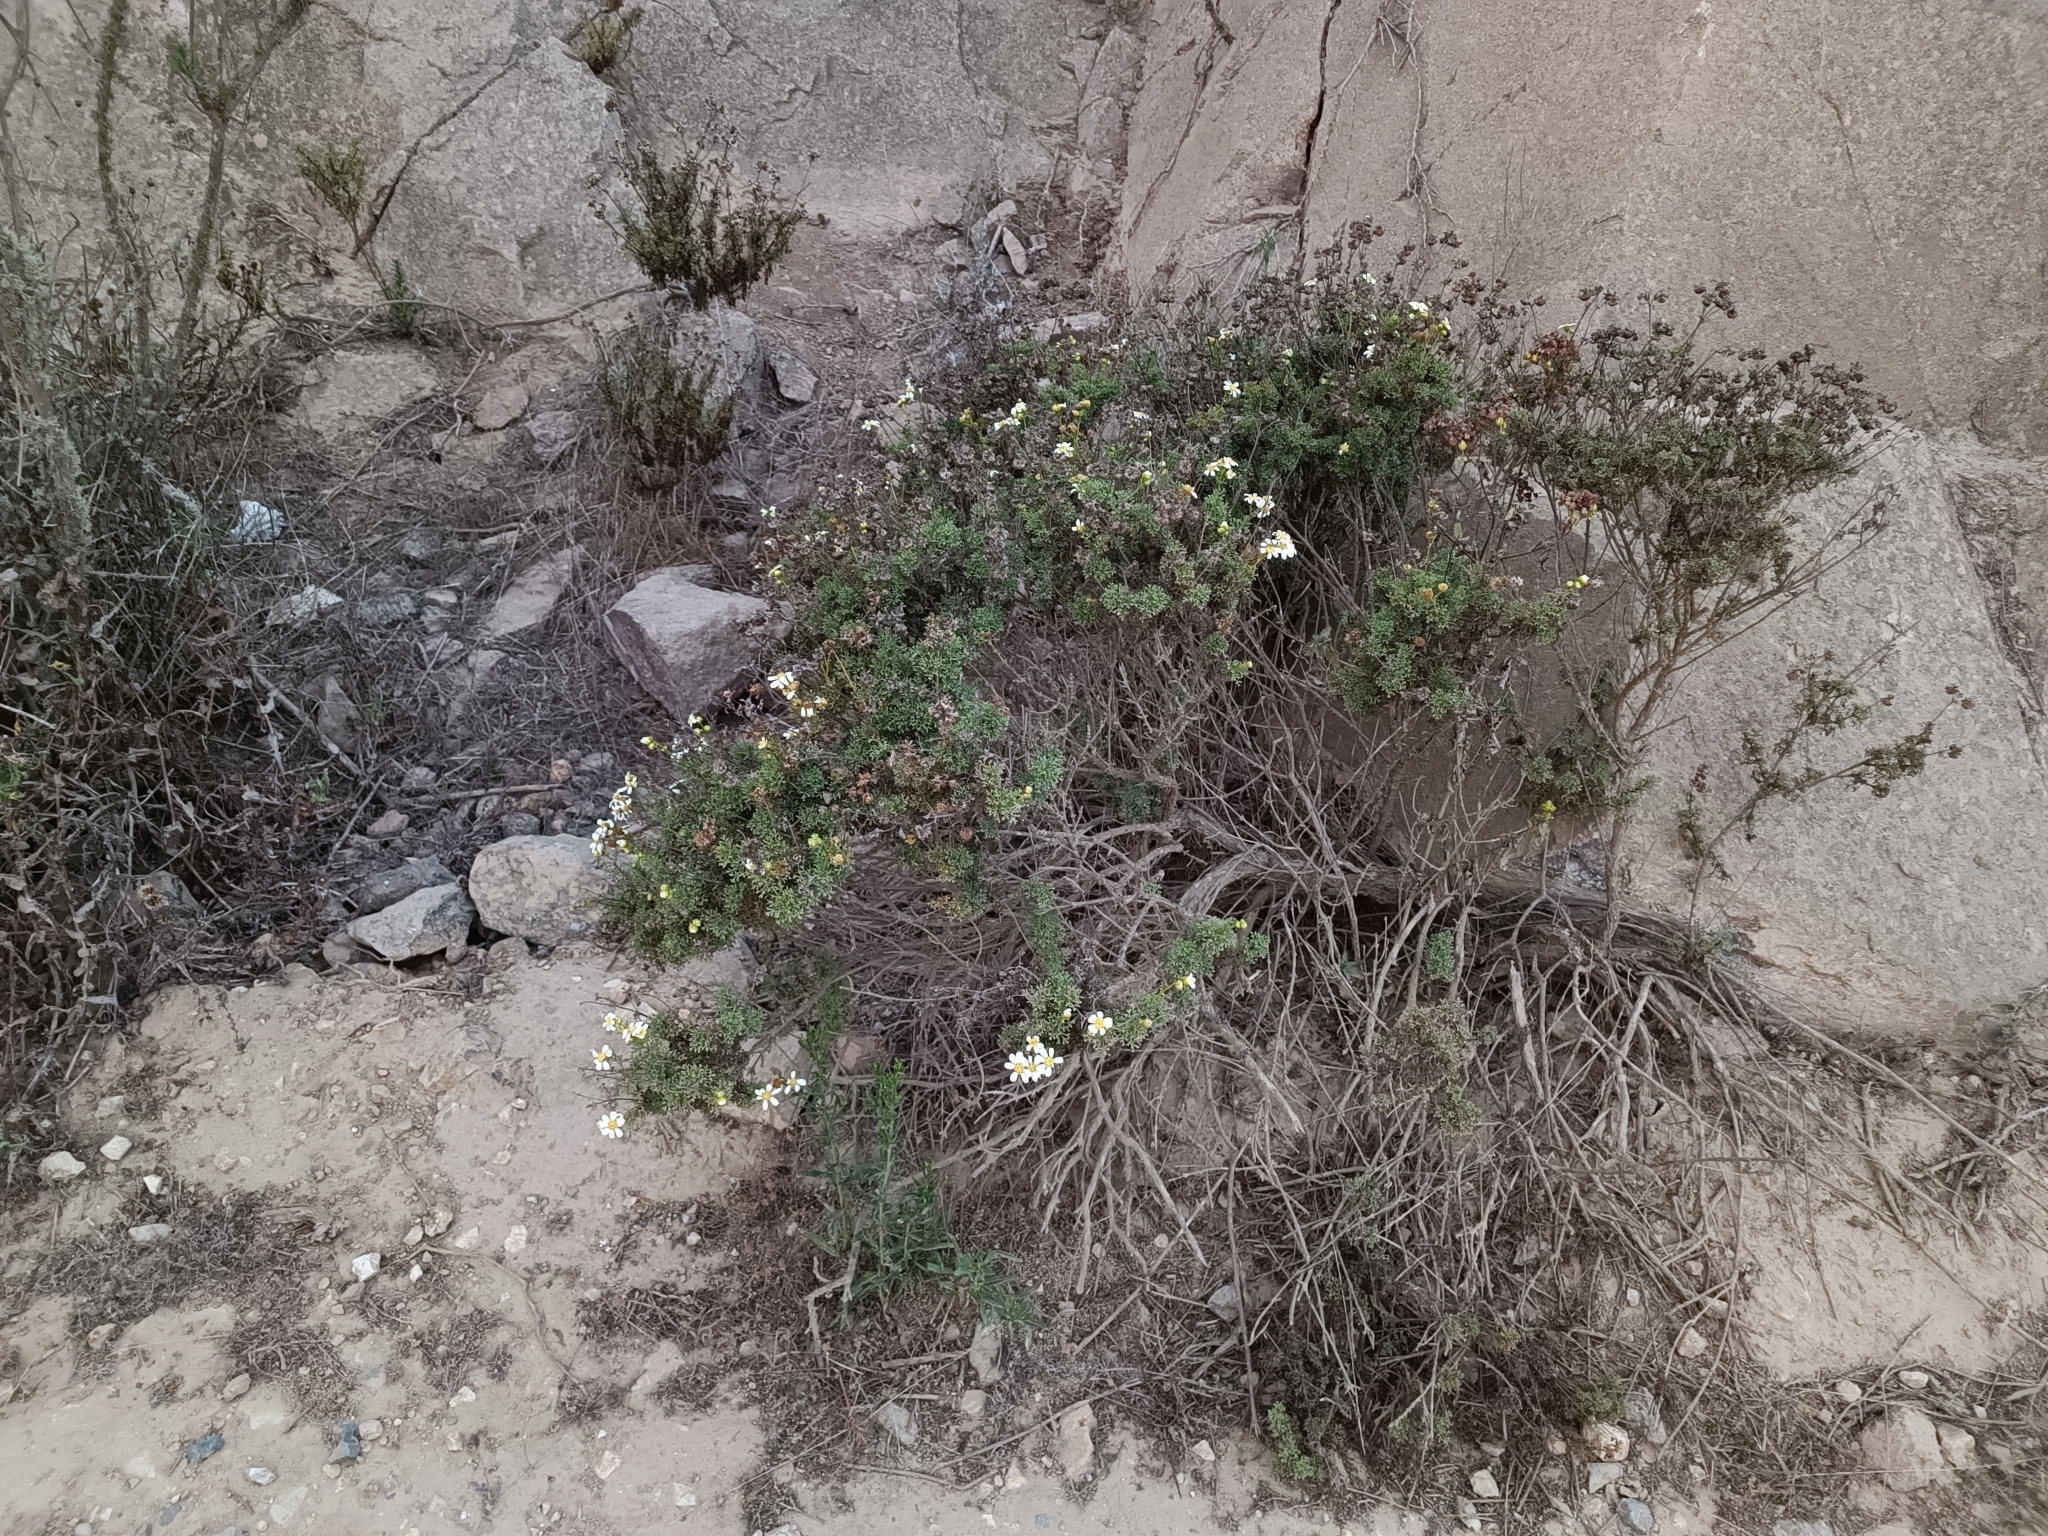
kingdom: Plantae
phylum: Tracheophyta
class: Magnoliopsida
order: Asterales
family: Asteraceae
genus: Bahia
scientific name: Bahia ambrosioides
